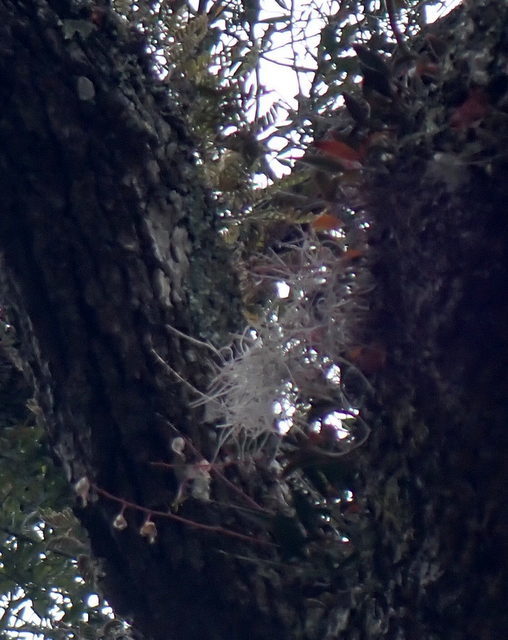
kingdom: Plantae
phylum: Tracheophyta
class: Liliopsida
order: Asparagales
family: Orchidaceae
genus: Epidendrum
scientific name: Epidendrum conopseum
